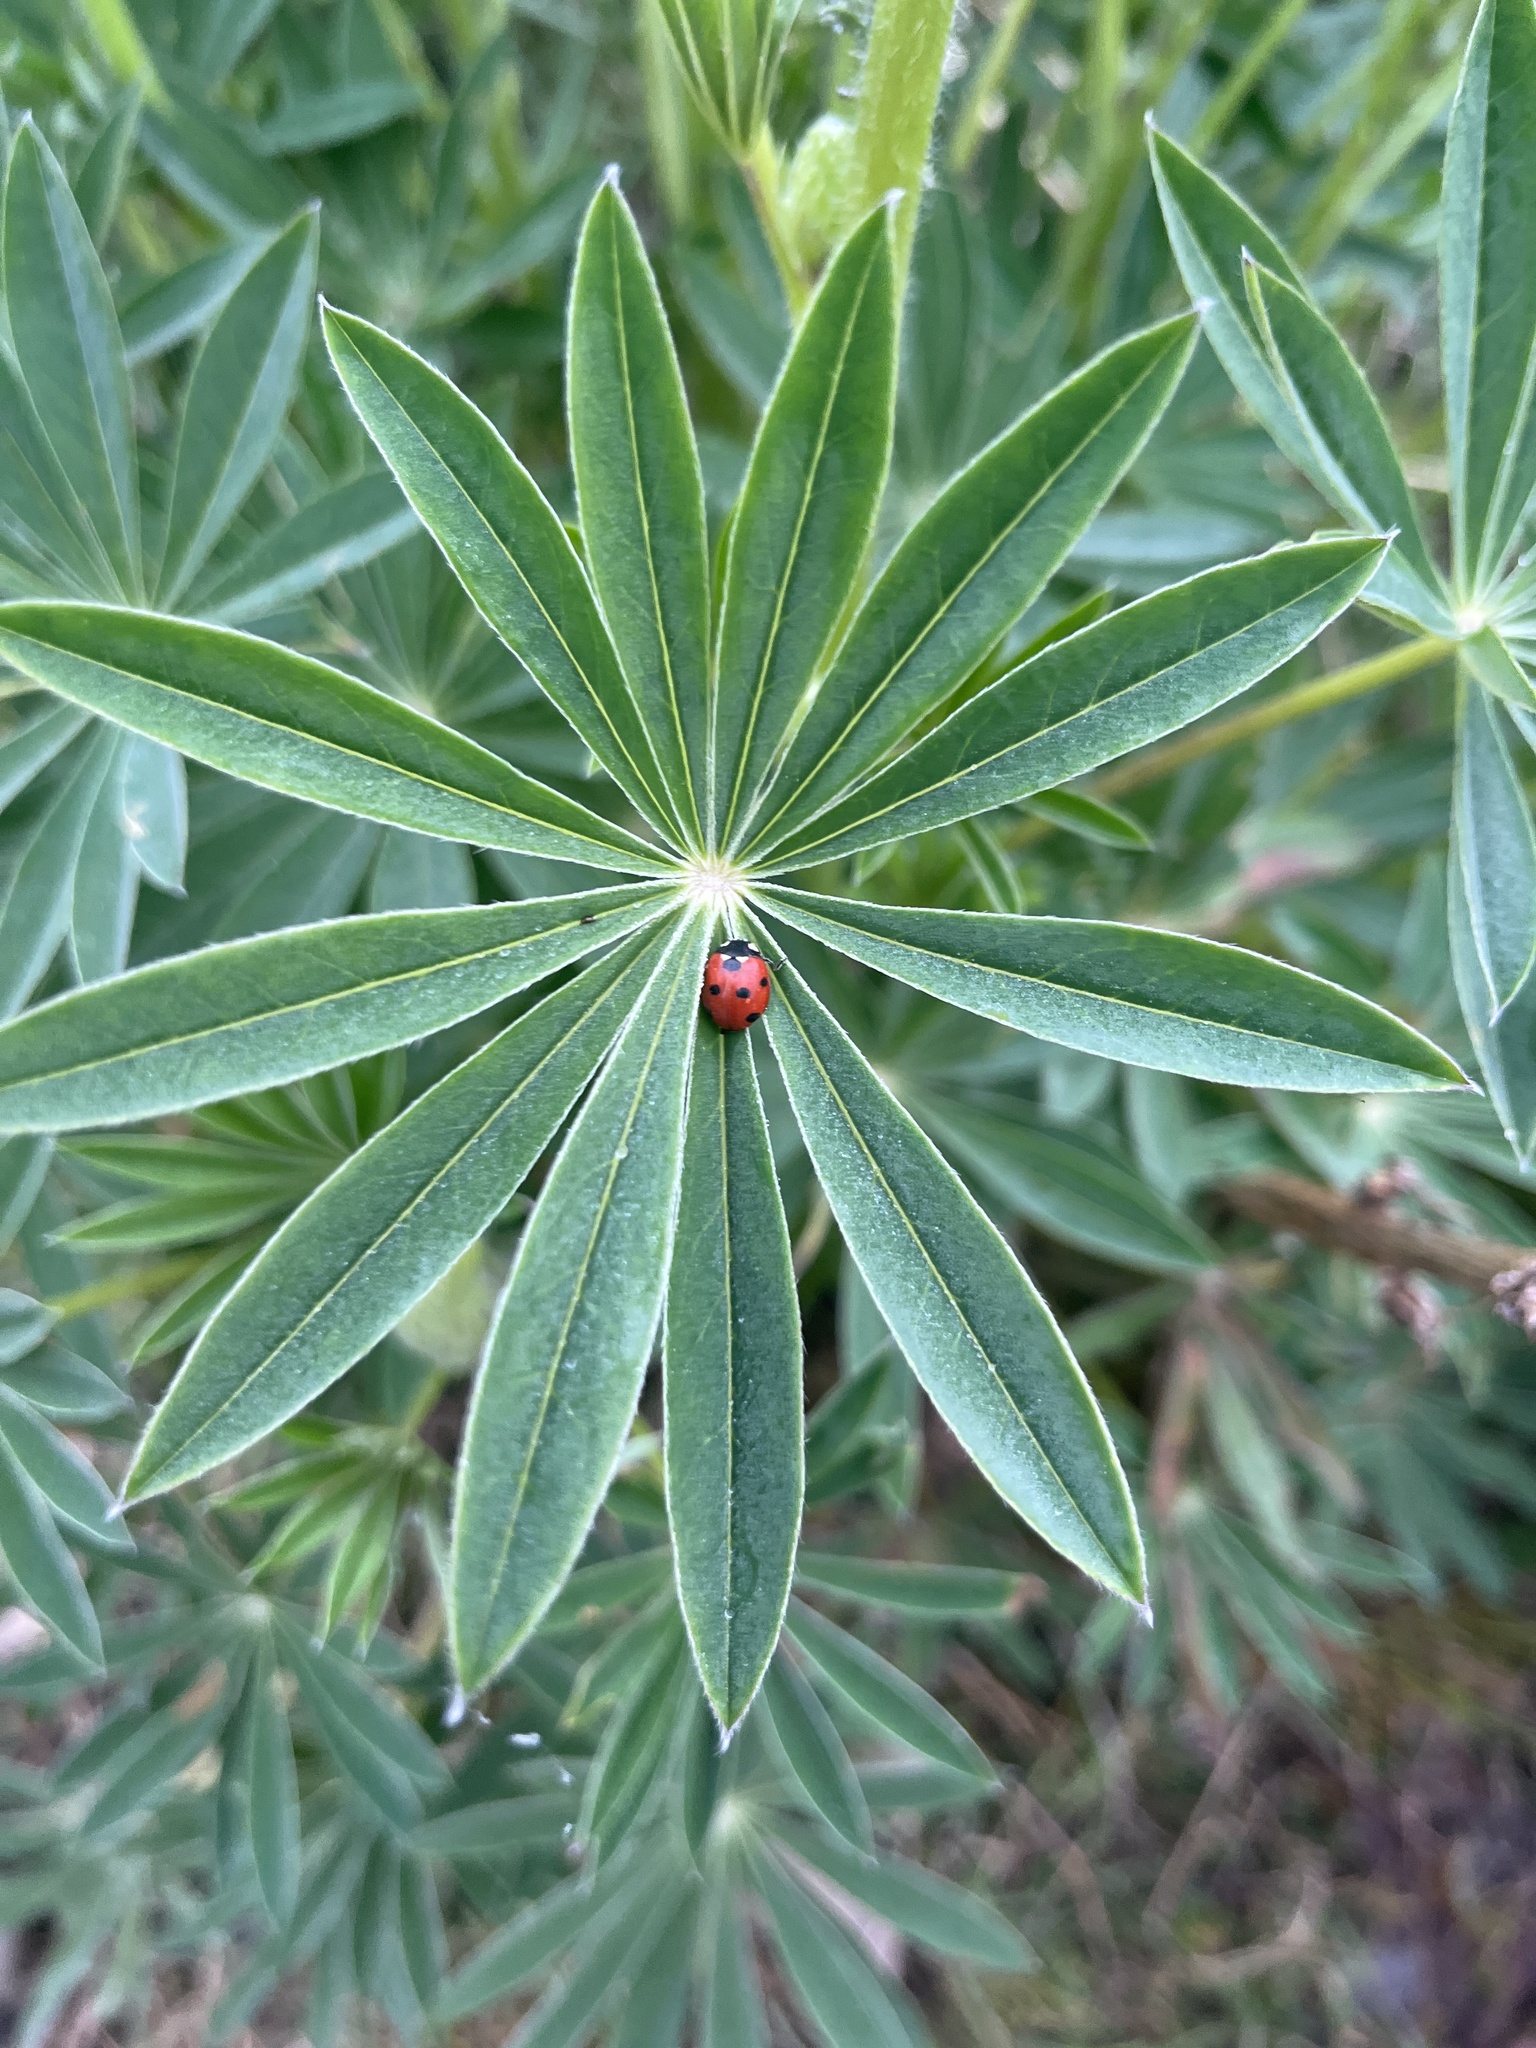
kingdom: Animalia
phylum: Arthropoda
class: Insecta
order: Coleoptera
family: Coccinellidae
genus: Coccinella
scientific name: Coccinella septempunctata
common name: Sevenspotted lady beetle
